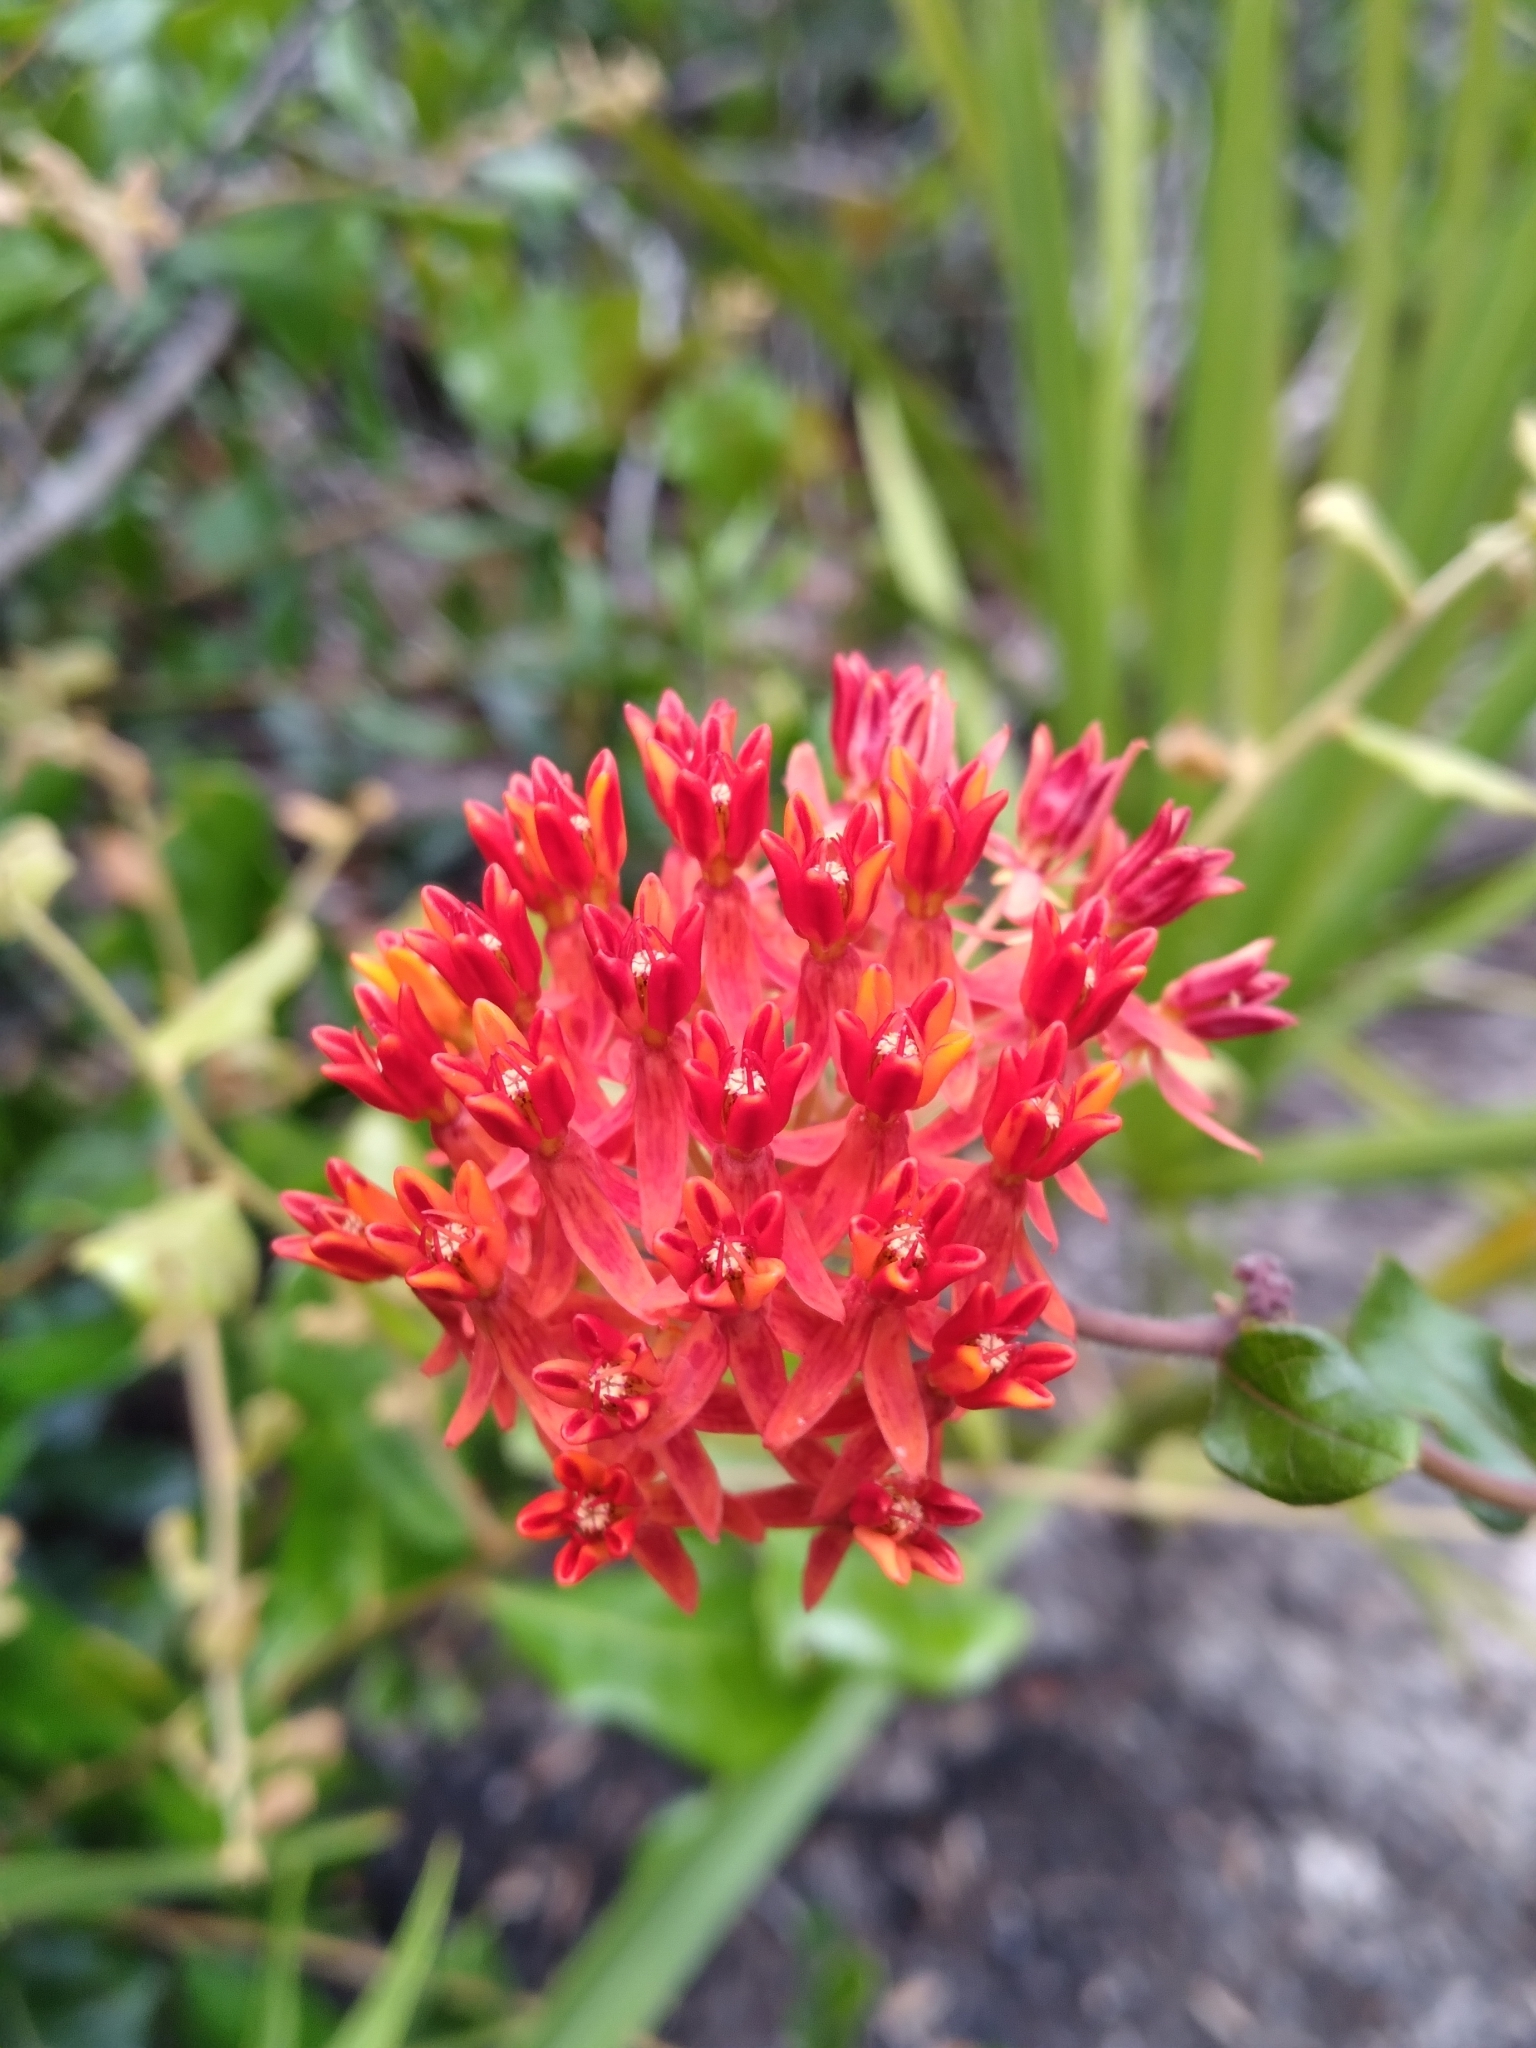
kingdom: Plantae
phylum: Tracheophyta
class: Magnoliopsida
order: Gentianales
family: Apocynaceae
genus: Asclepias
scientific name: Asclepias tuberosa
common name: Butterfly milkweed
